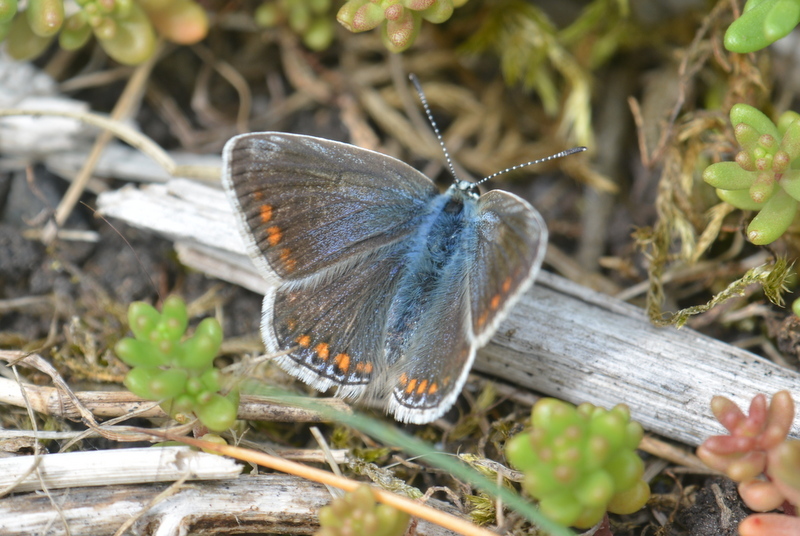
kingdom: Animalia
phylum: Arthropoda
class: Insecta
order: Lepidoptera
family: Lycaenidae
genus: Polyommatus
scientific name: Polyommatus icarus
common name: Common blue
